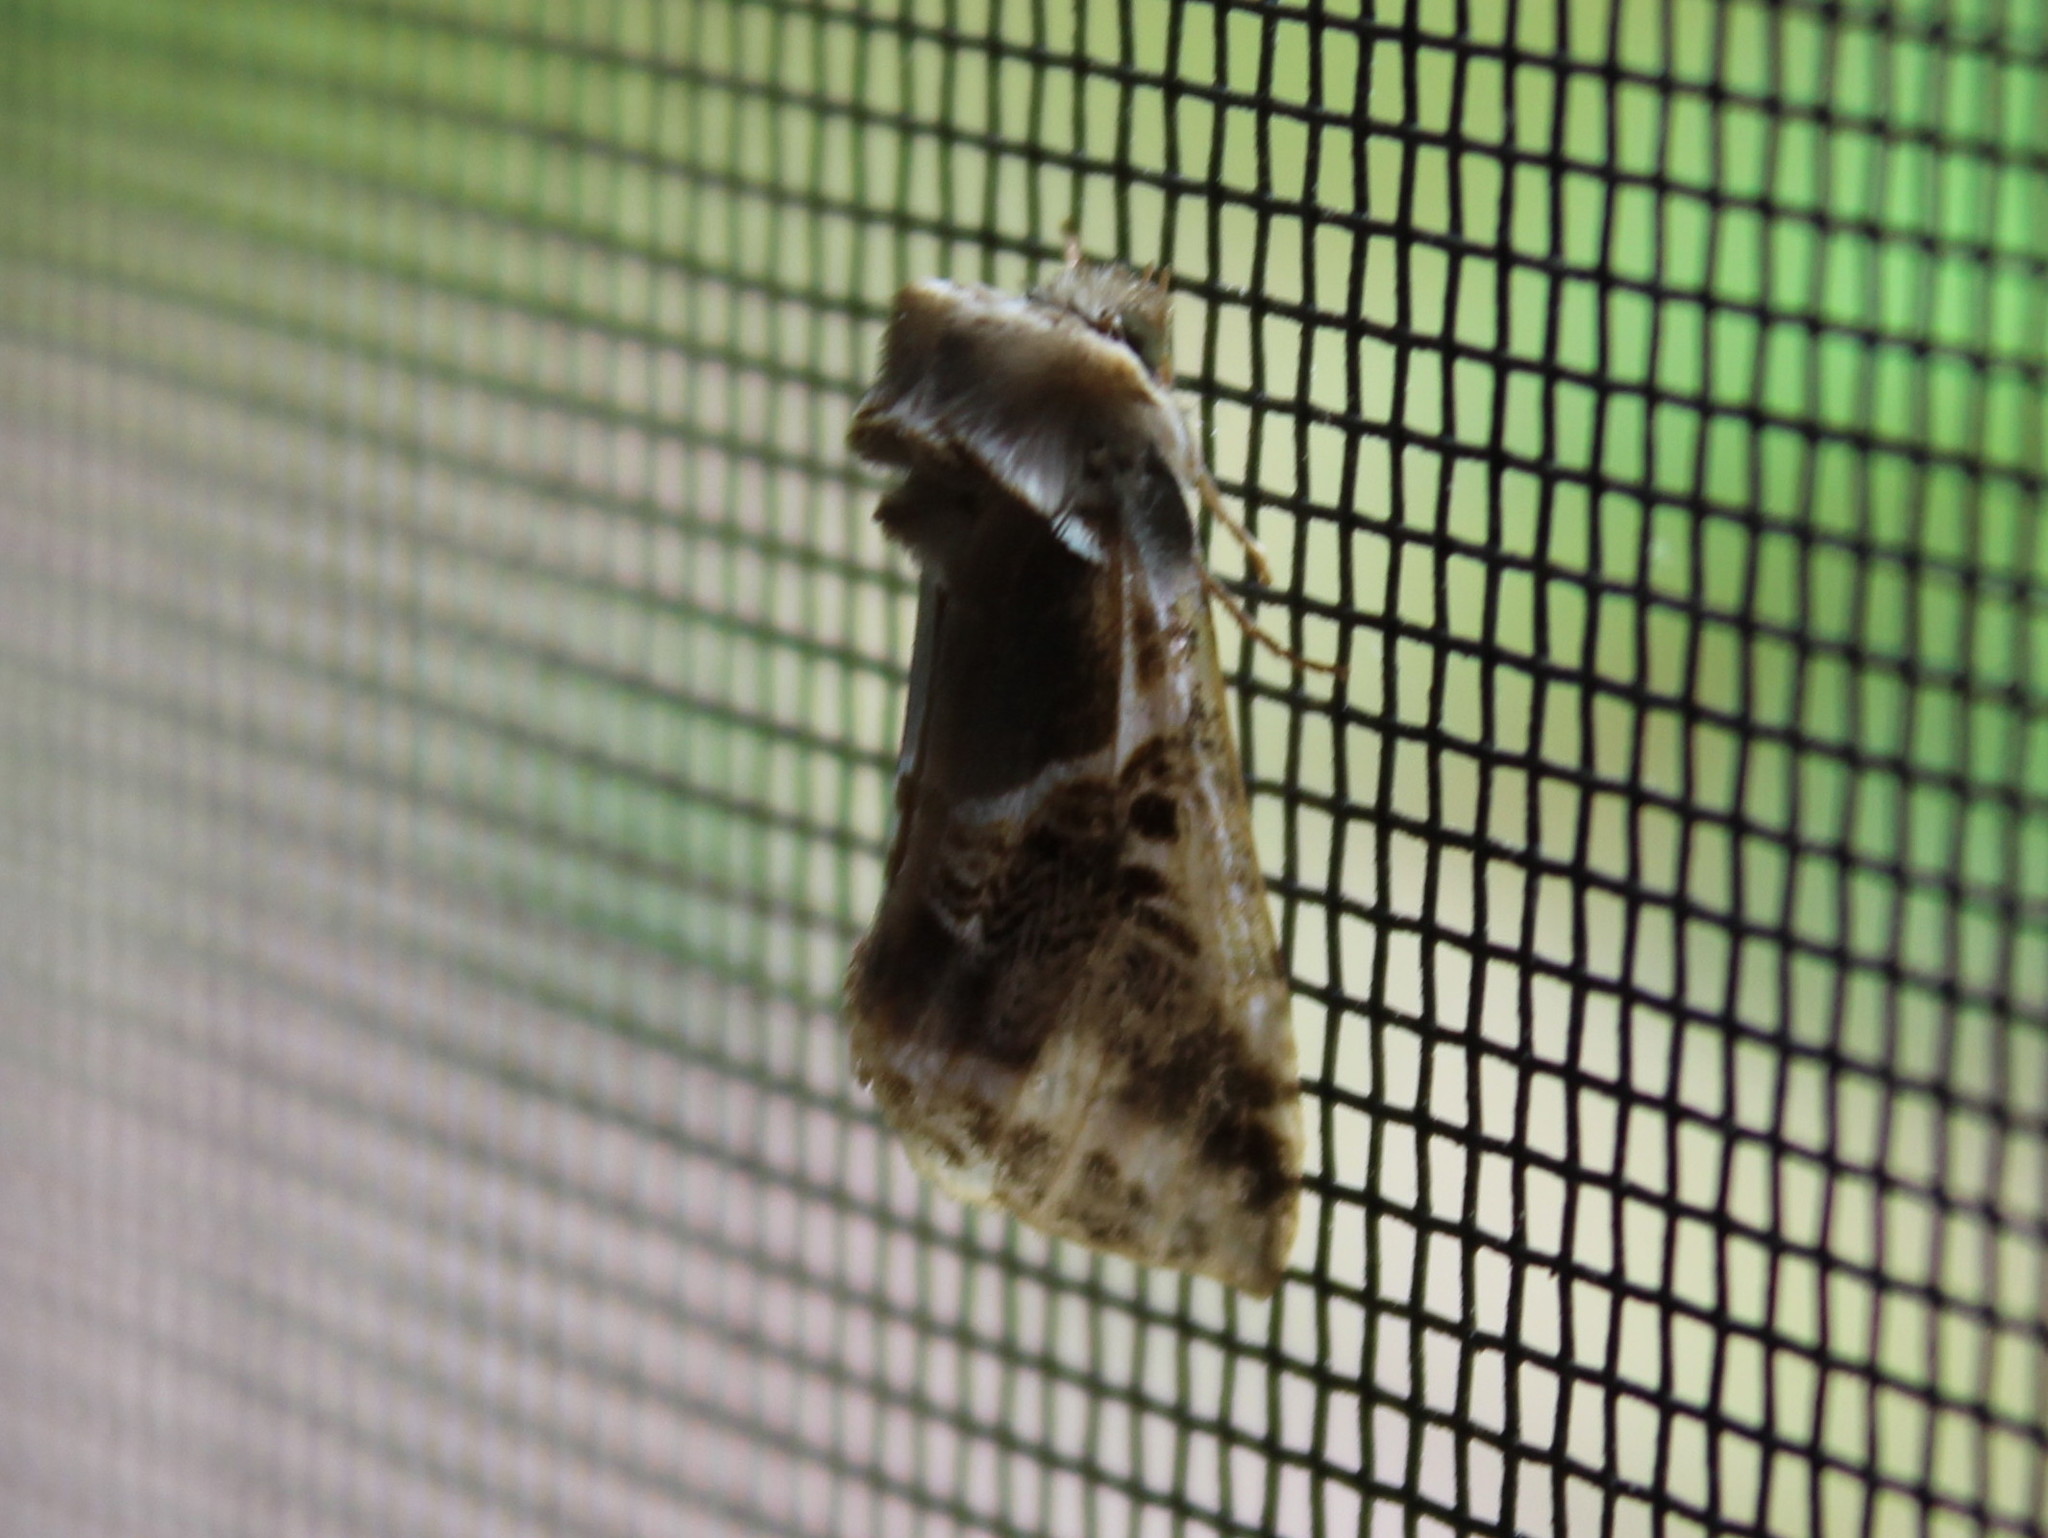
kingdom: Animalia
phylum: Arthropoda
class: Insecta
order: Lepidoptera
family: Drepanidae
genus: Habrosyne
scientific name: Habrosyne scripta
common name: Lettered habrosyne moth
